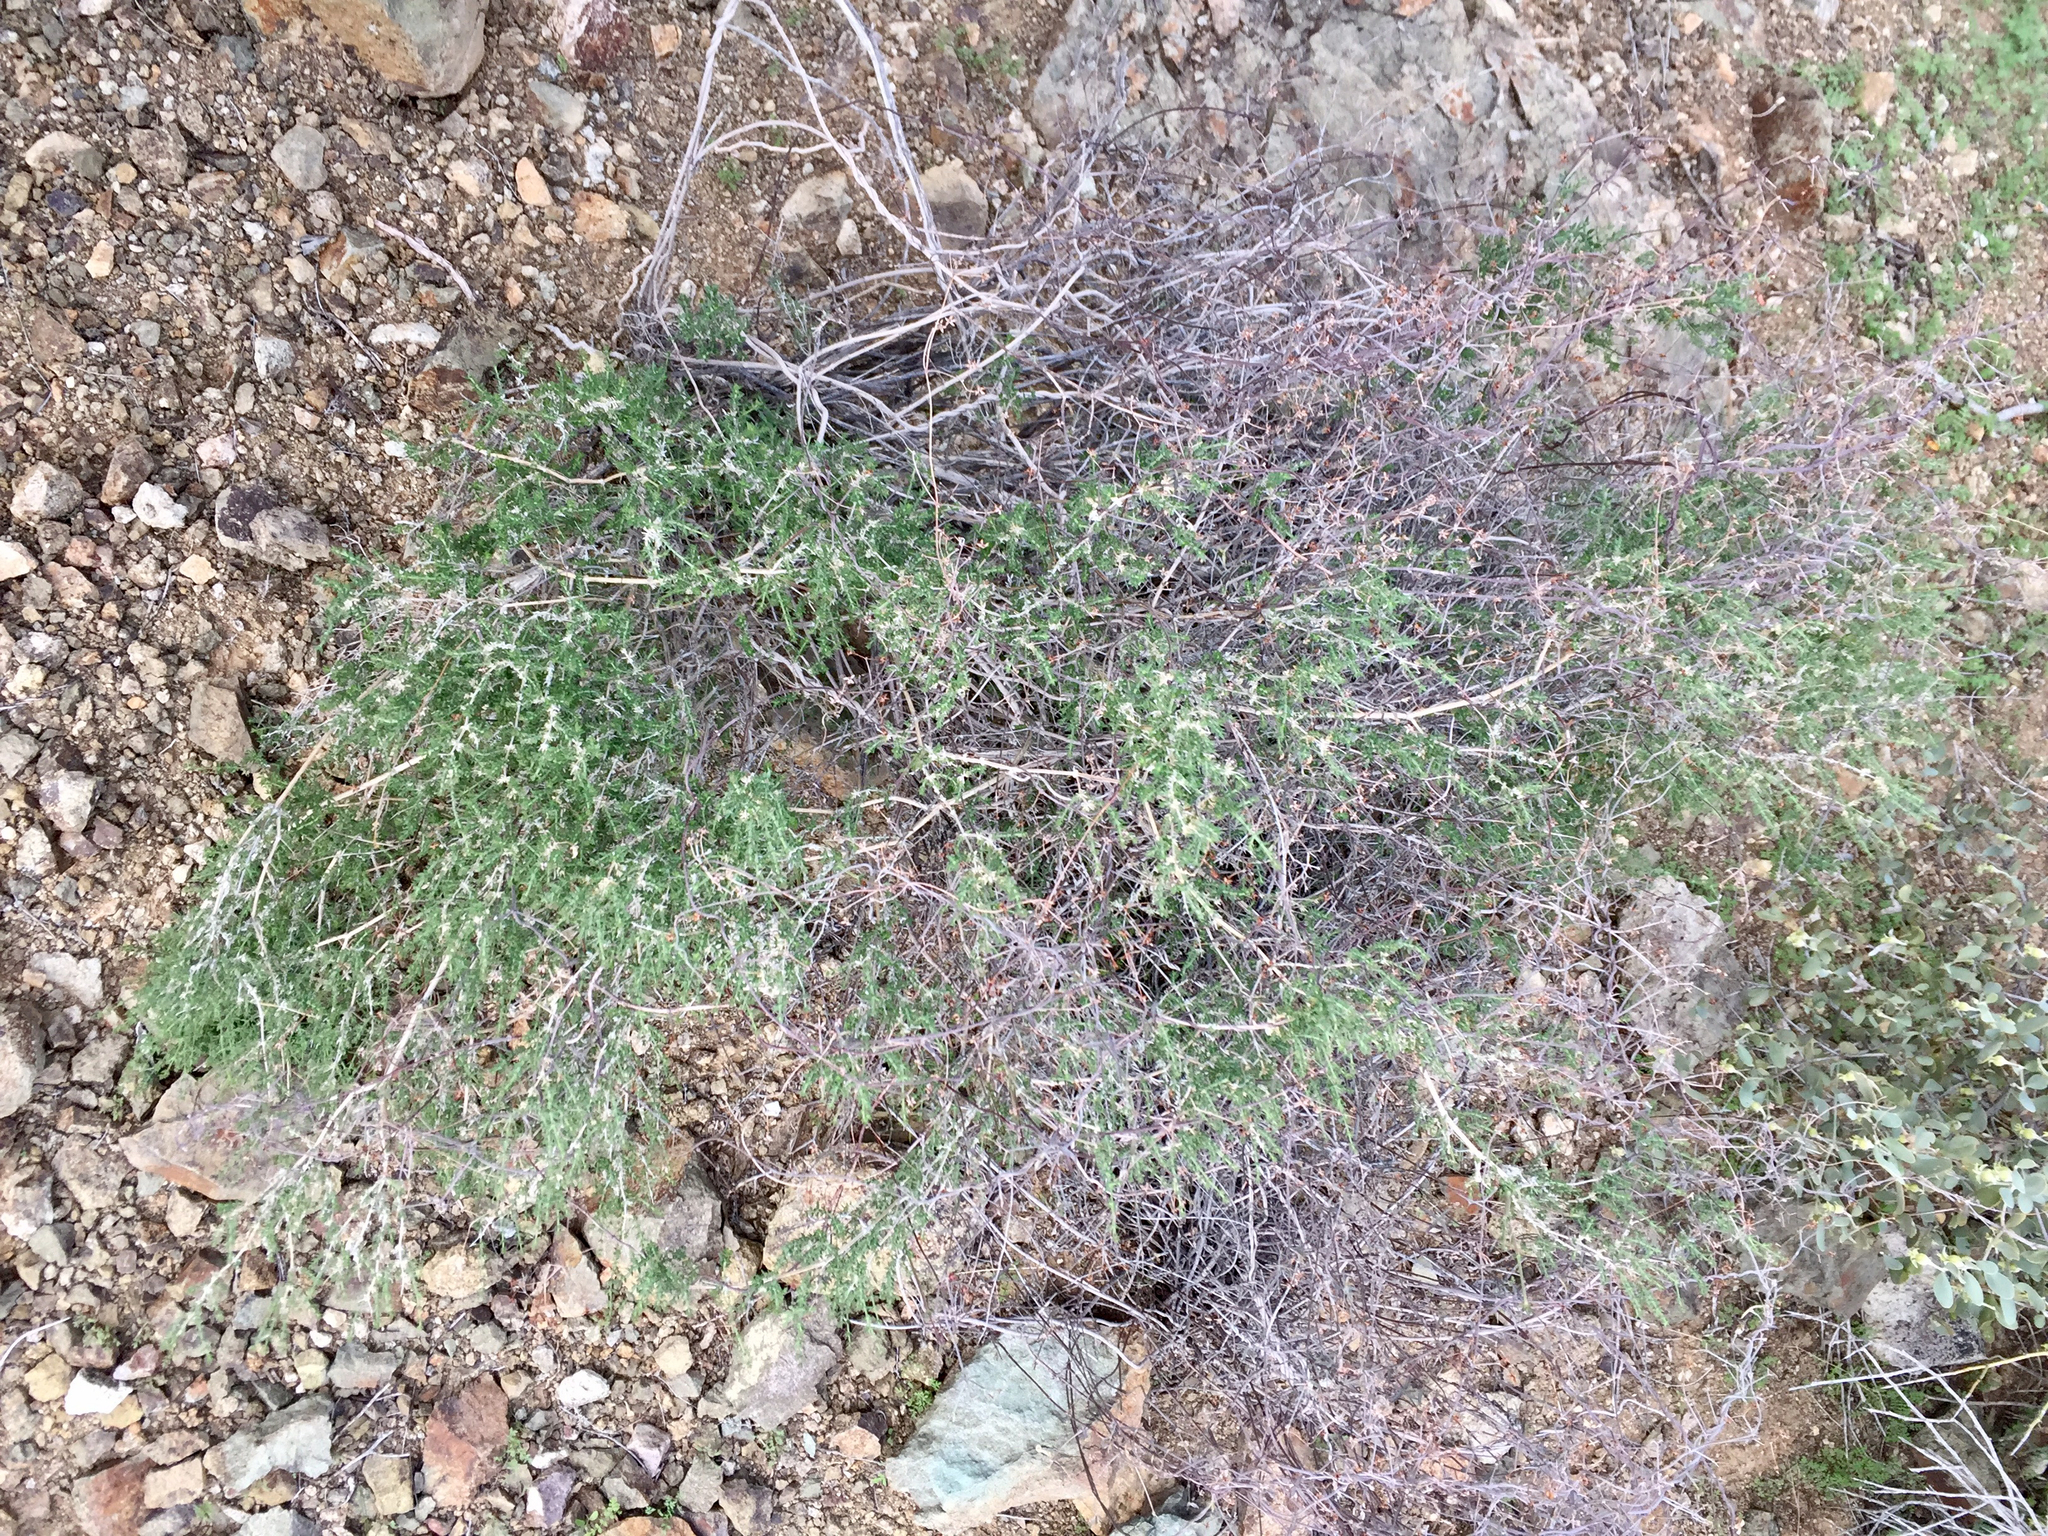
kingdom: Plantae
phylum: Tracheophyta
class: Magnoliopsida
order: Gentianales
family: Rubiaceae
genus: Galium
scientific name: Galium stellatum
